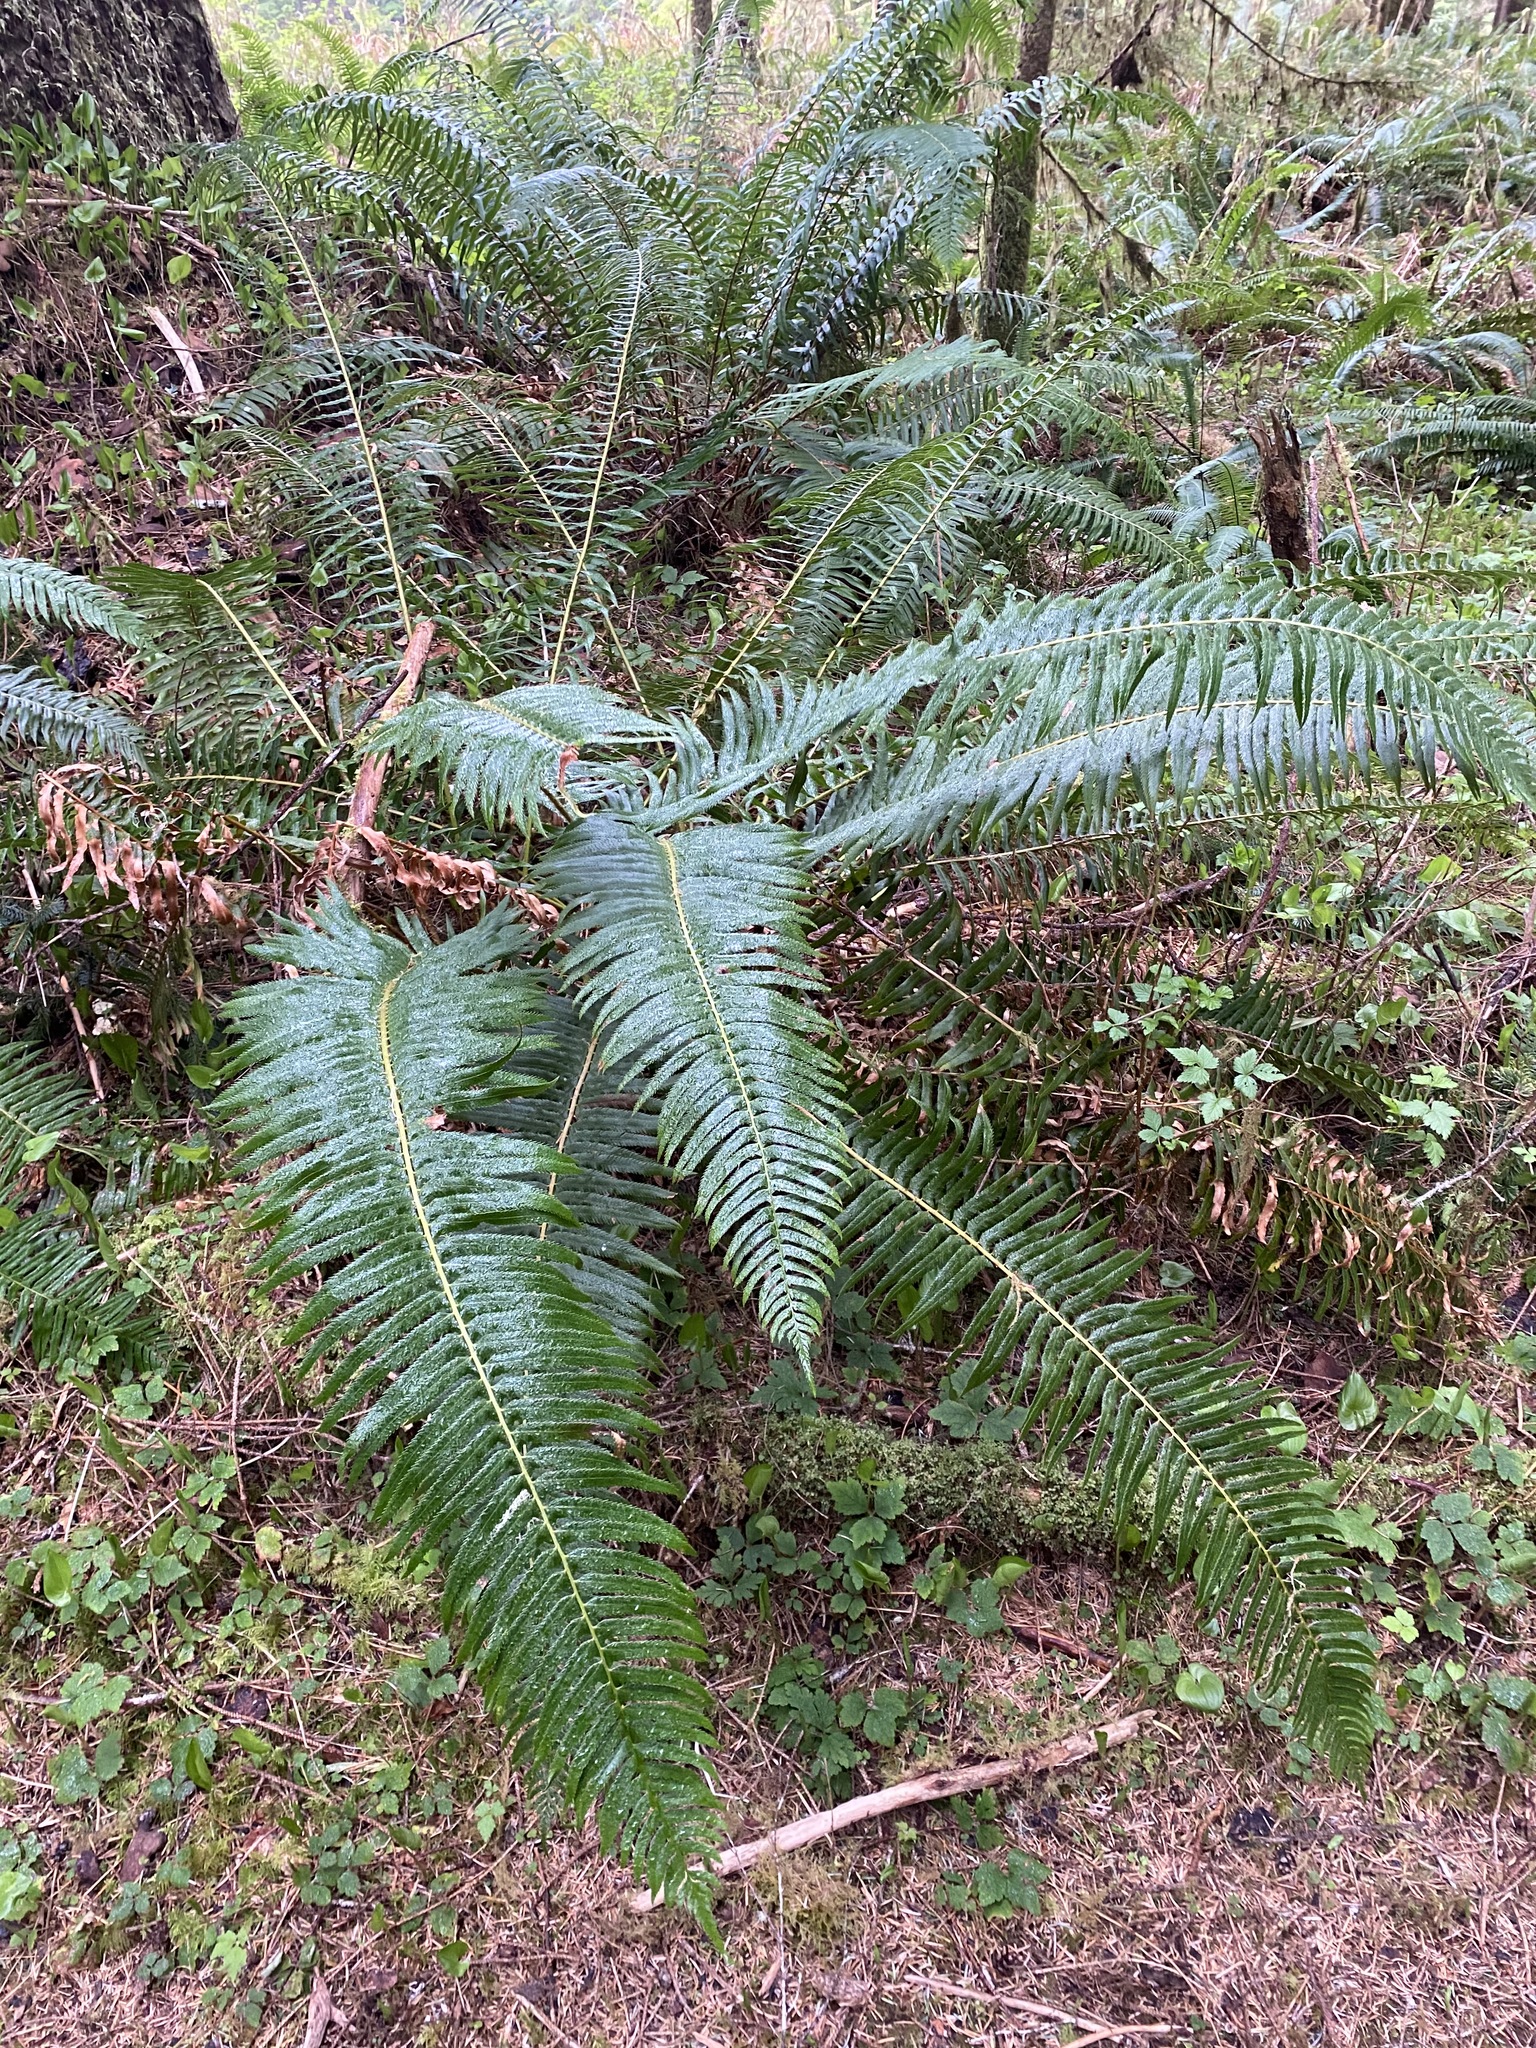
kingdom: Plantae
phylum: Tracheophyta
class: Polypodiopsida
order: Polypodiales
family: Dryopteridaceae
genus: Polystichum
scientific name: Polystichum munitum
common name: Western sword-fern
